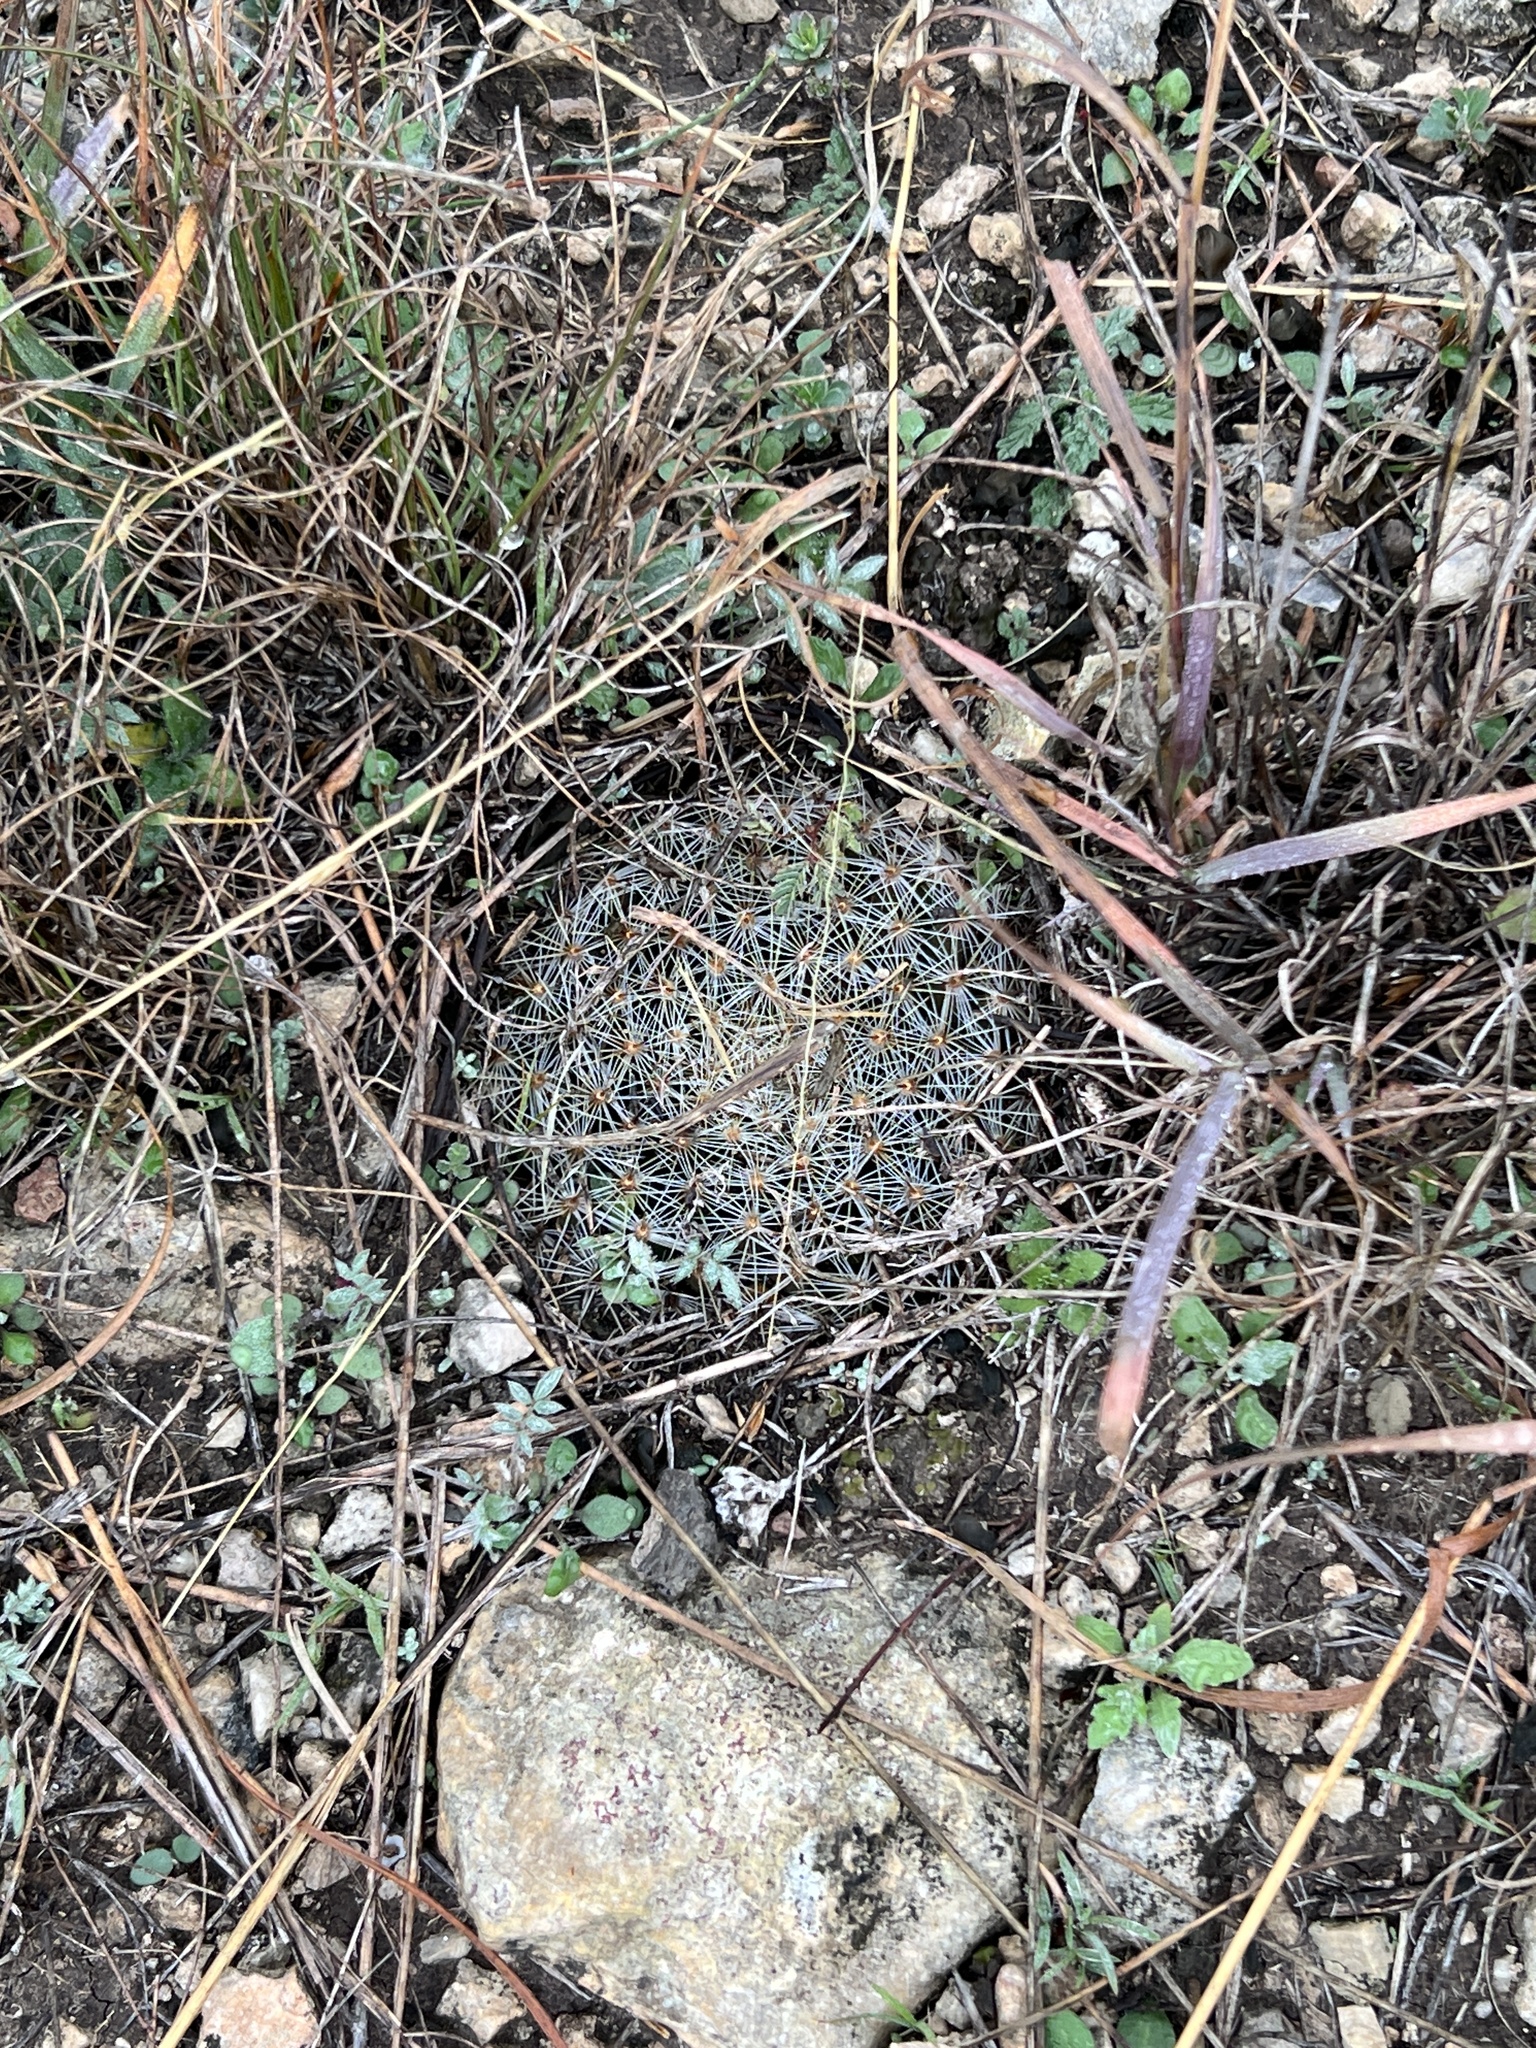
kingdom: Plantae
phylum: Tracheophyta
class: Magnoliopsida
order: Caryophyllales
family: Cactaceae
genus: Mammillaria
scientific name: Mammillaria heyderi
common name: Little nipple cactus
